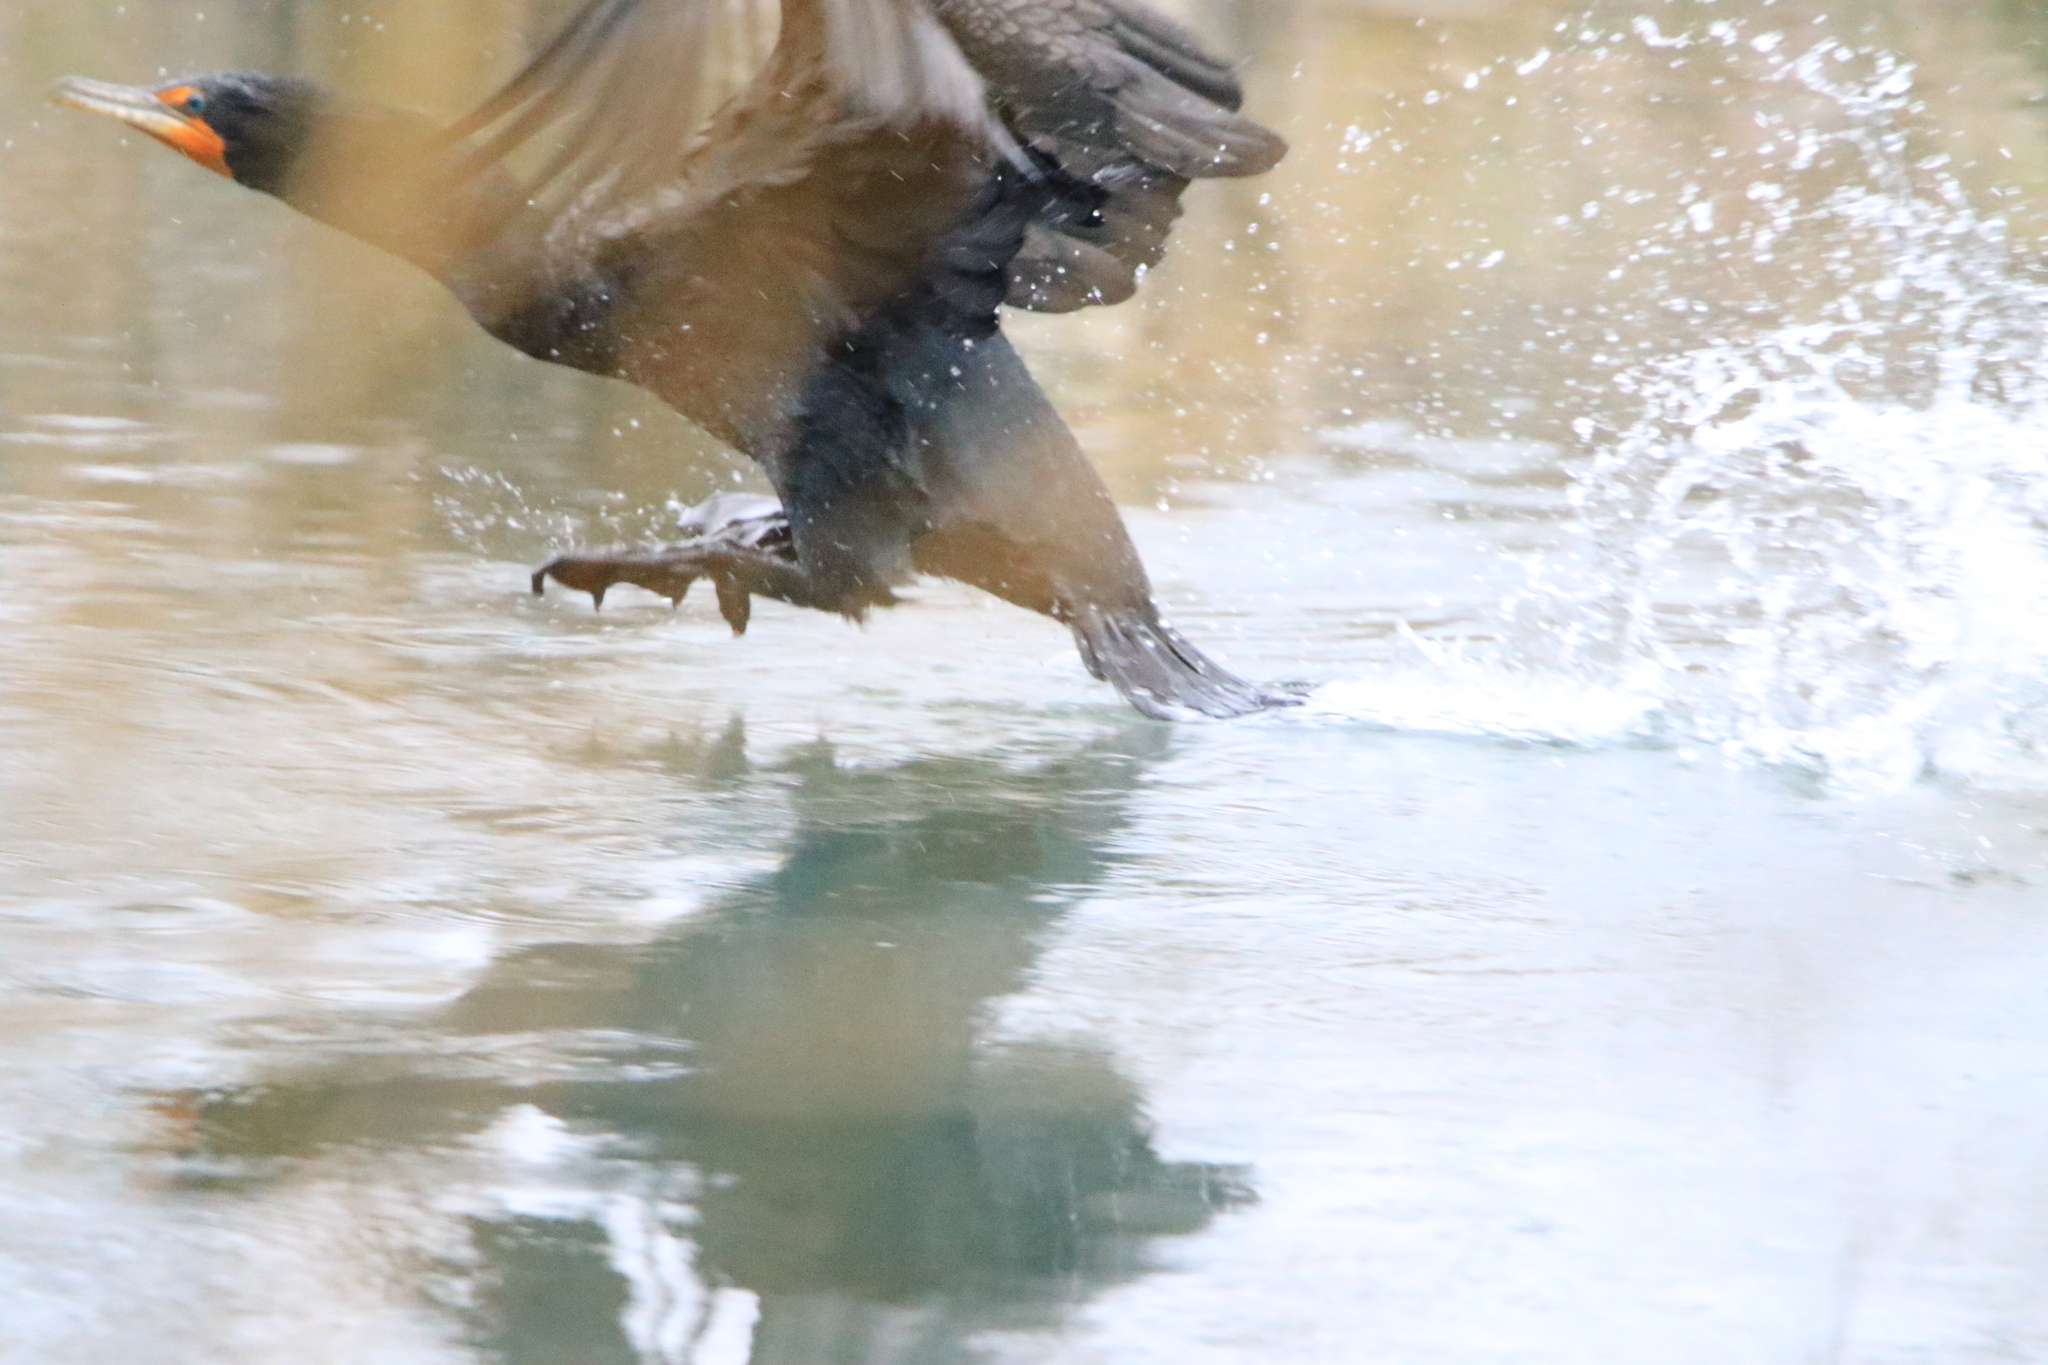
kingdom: Animalia
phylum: Chordata
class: Aves
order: Suliformes
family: Phalacrocoracidae
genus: Phalacrocorax
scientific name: Phalacrocorax auritus
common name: Double-crested cormorant
